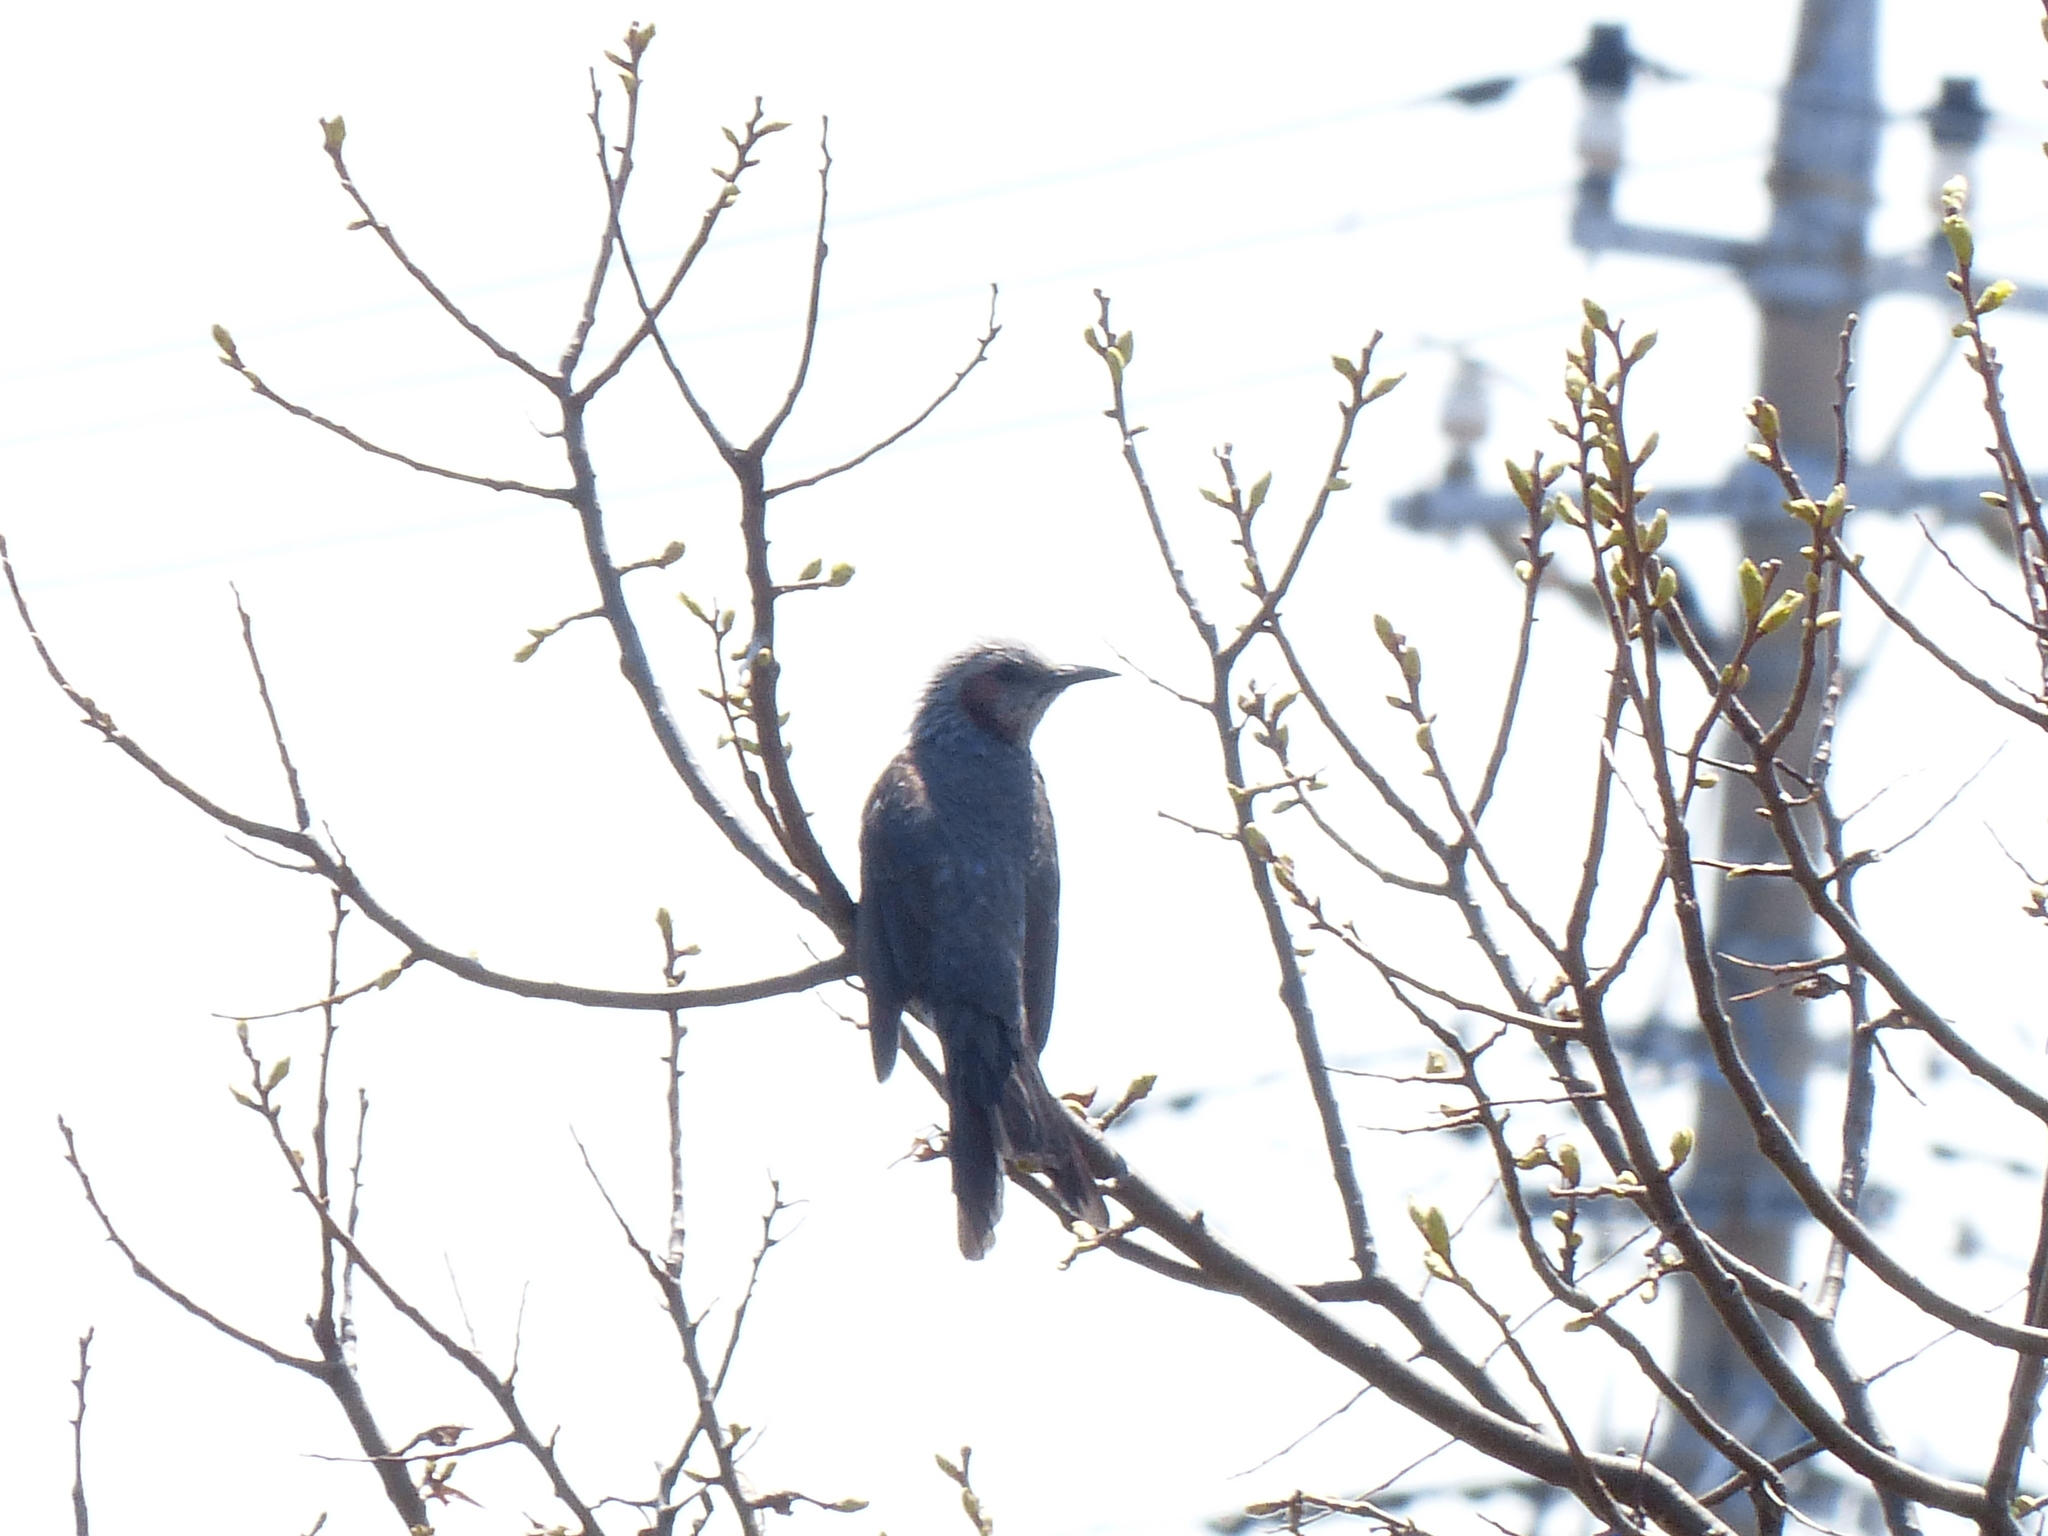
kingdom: Animalia
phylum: Chordata
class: Aves
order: Passeriformes
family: Pycnonotidae
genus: Hypsipetes
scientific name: Hypsipetes amaurotis
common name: Brown-eared bulbul
